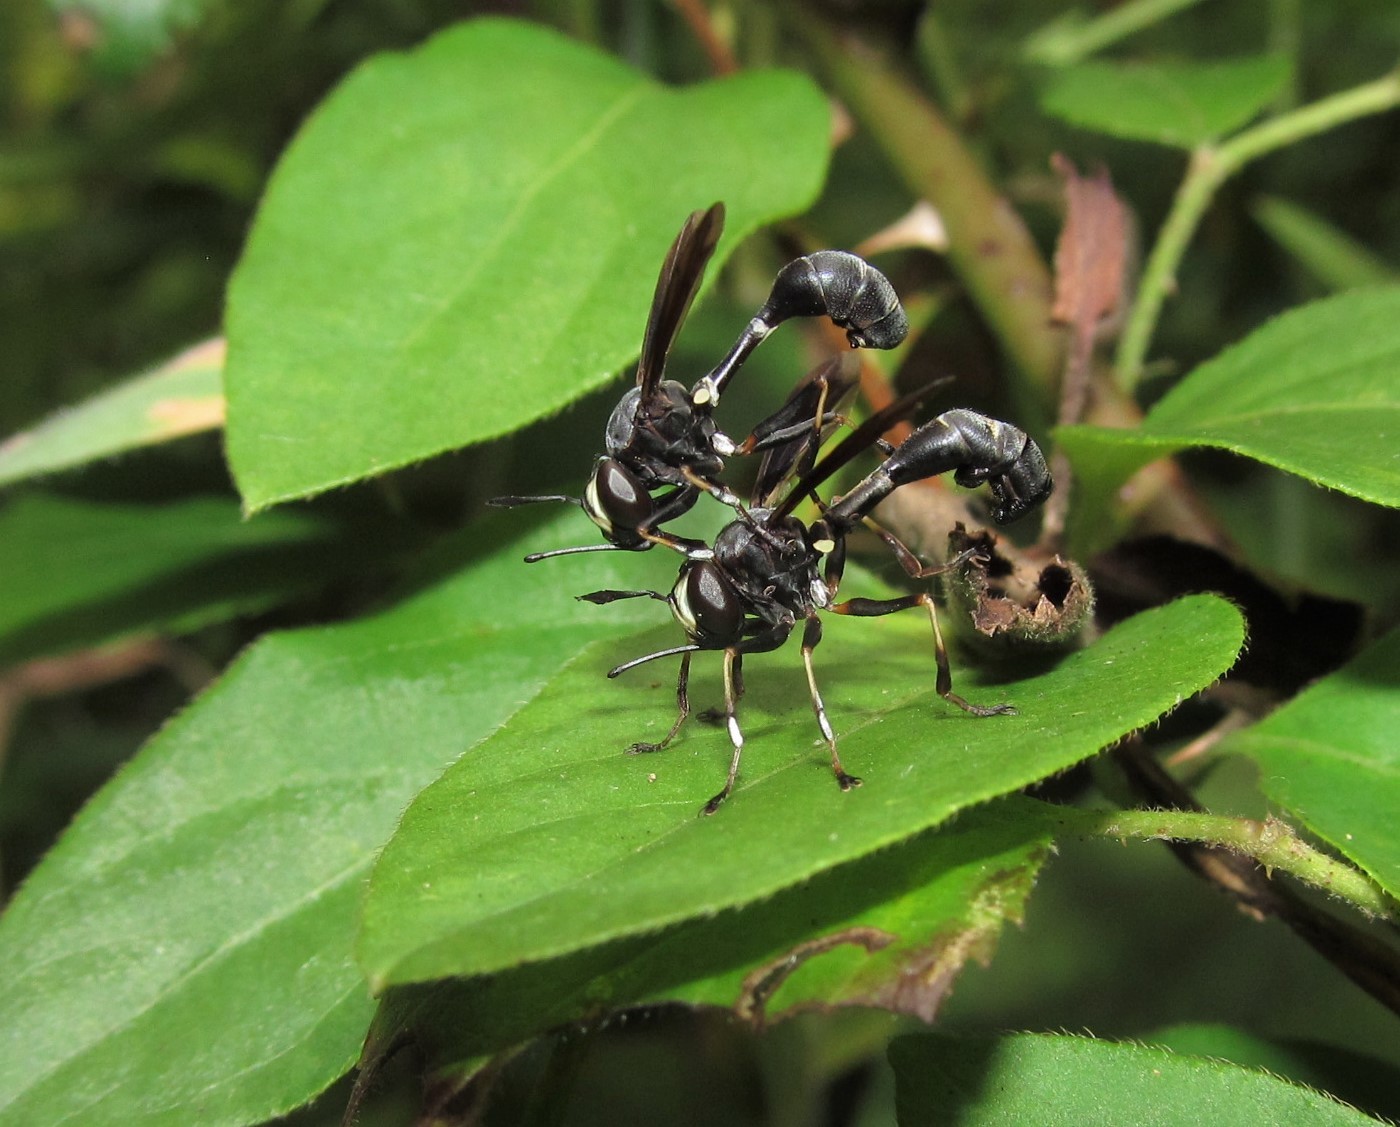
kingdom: Animalia
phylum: Arthropoda
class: Insecta
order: Diptera
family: Conopidae
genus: Physocephala
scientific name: Physocephala tibialis
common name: Common eastern physocephala
